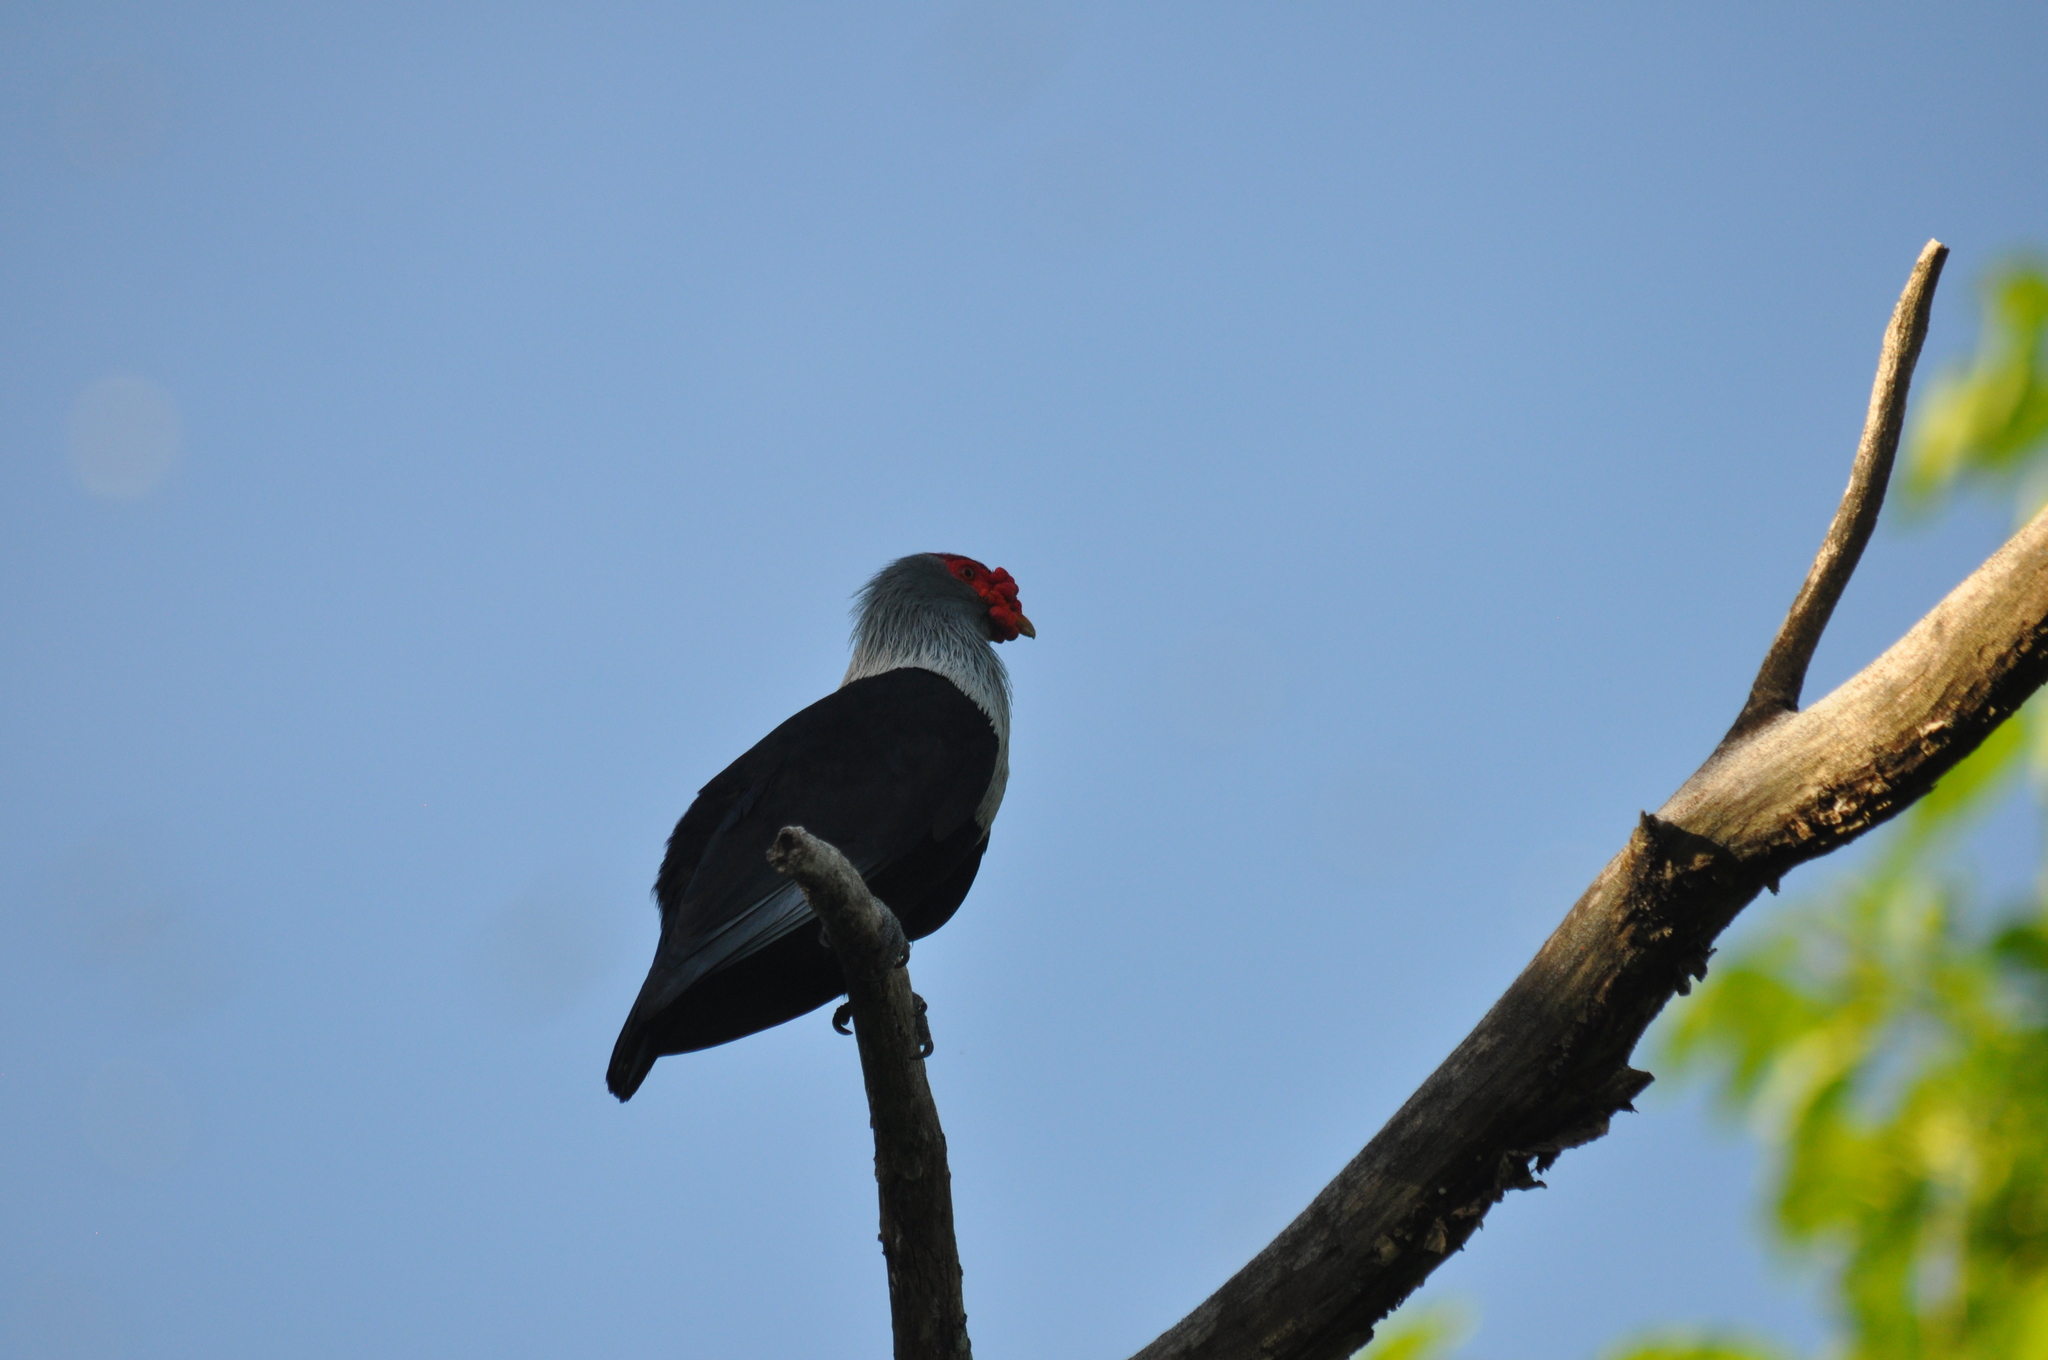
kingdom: Animalia
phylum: Chordata
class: Aves
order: Columbiformes
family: Columbidae
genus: Alectroenas
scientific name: Alectroenas pulcherrimus
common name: Seychelles blue pigeon
